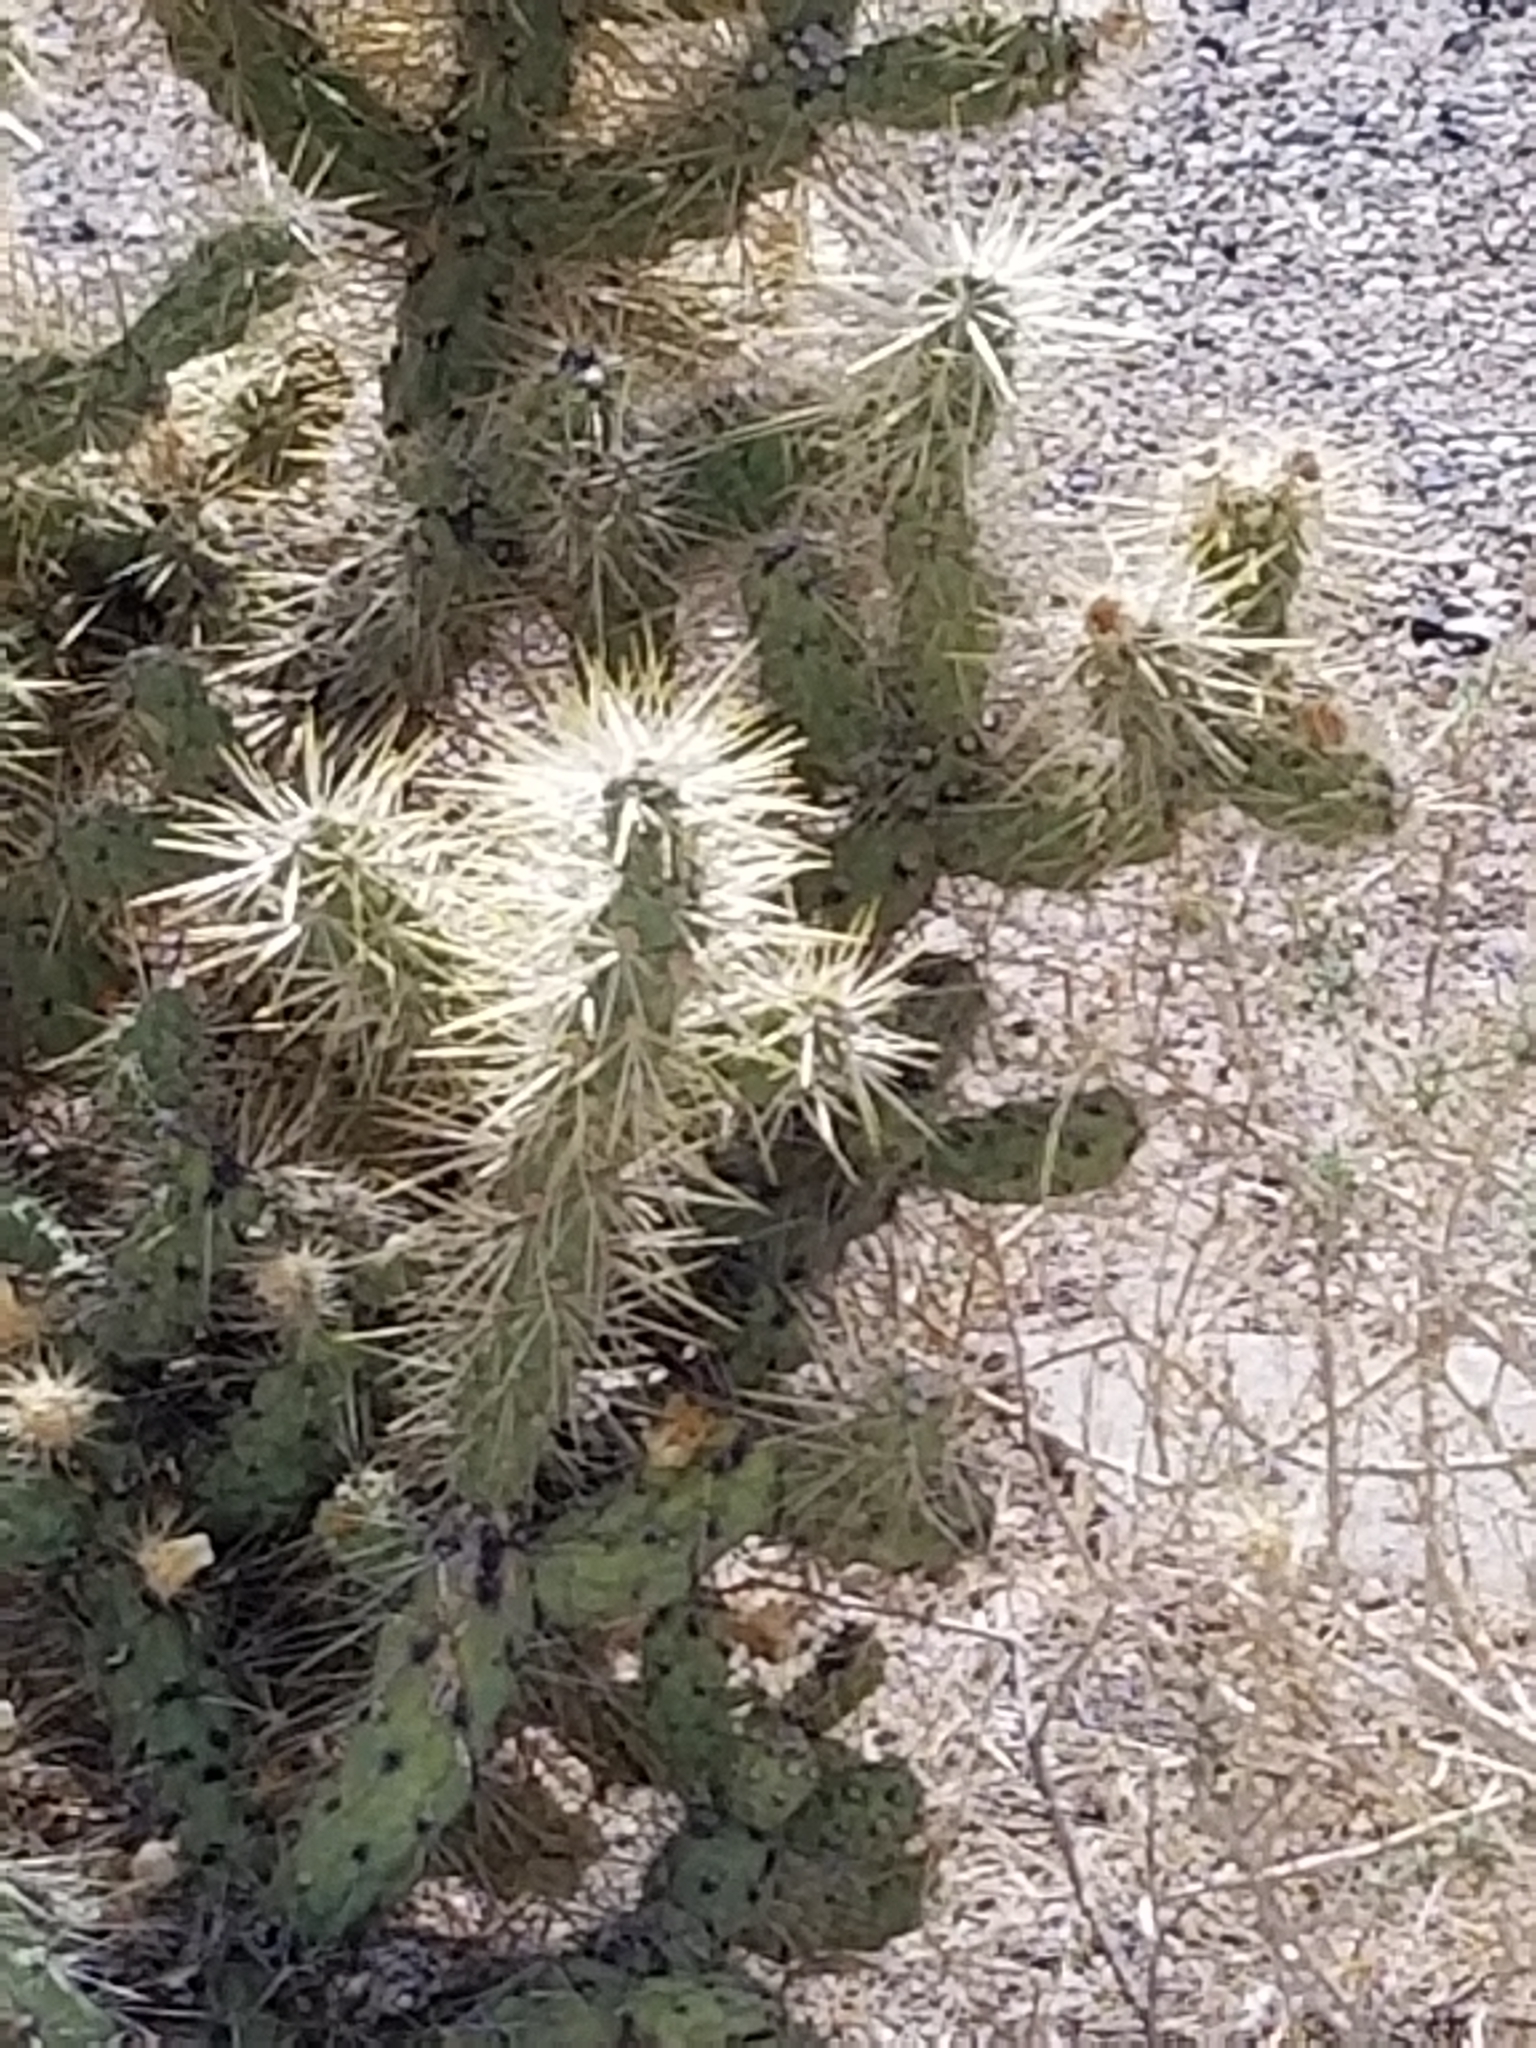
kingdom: Plantae
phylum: Tracheophyta
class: Magnoliopsida
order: Caryophyllales
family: Cactaceae
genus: Cylindropuntia
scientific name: Cylindropuntia echinocarpa
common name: Ground cholla
